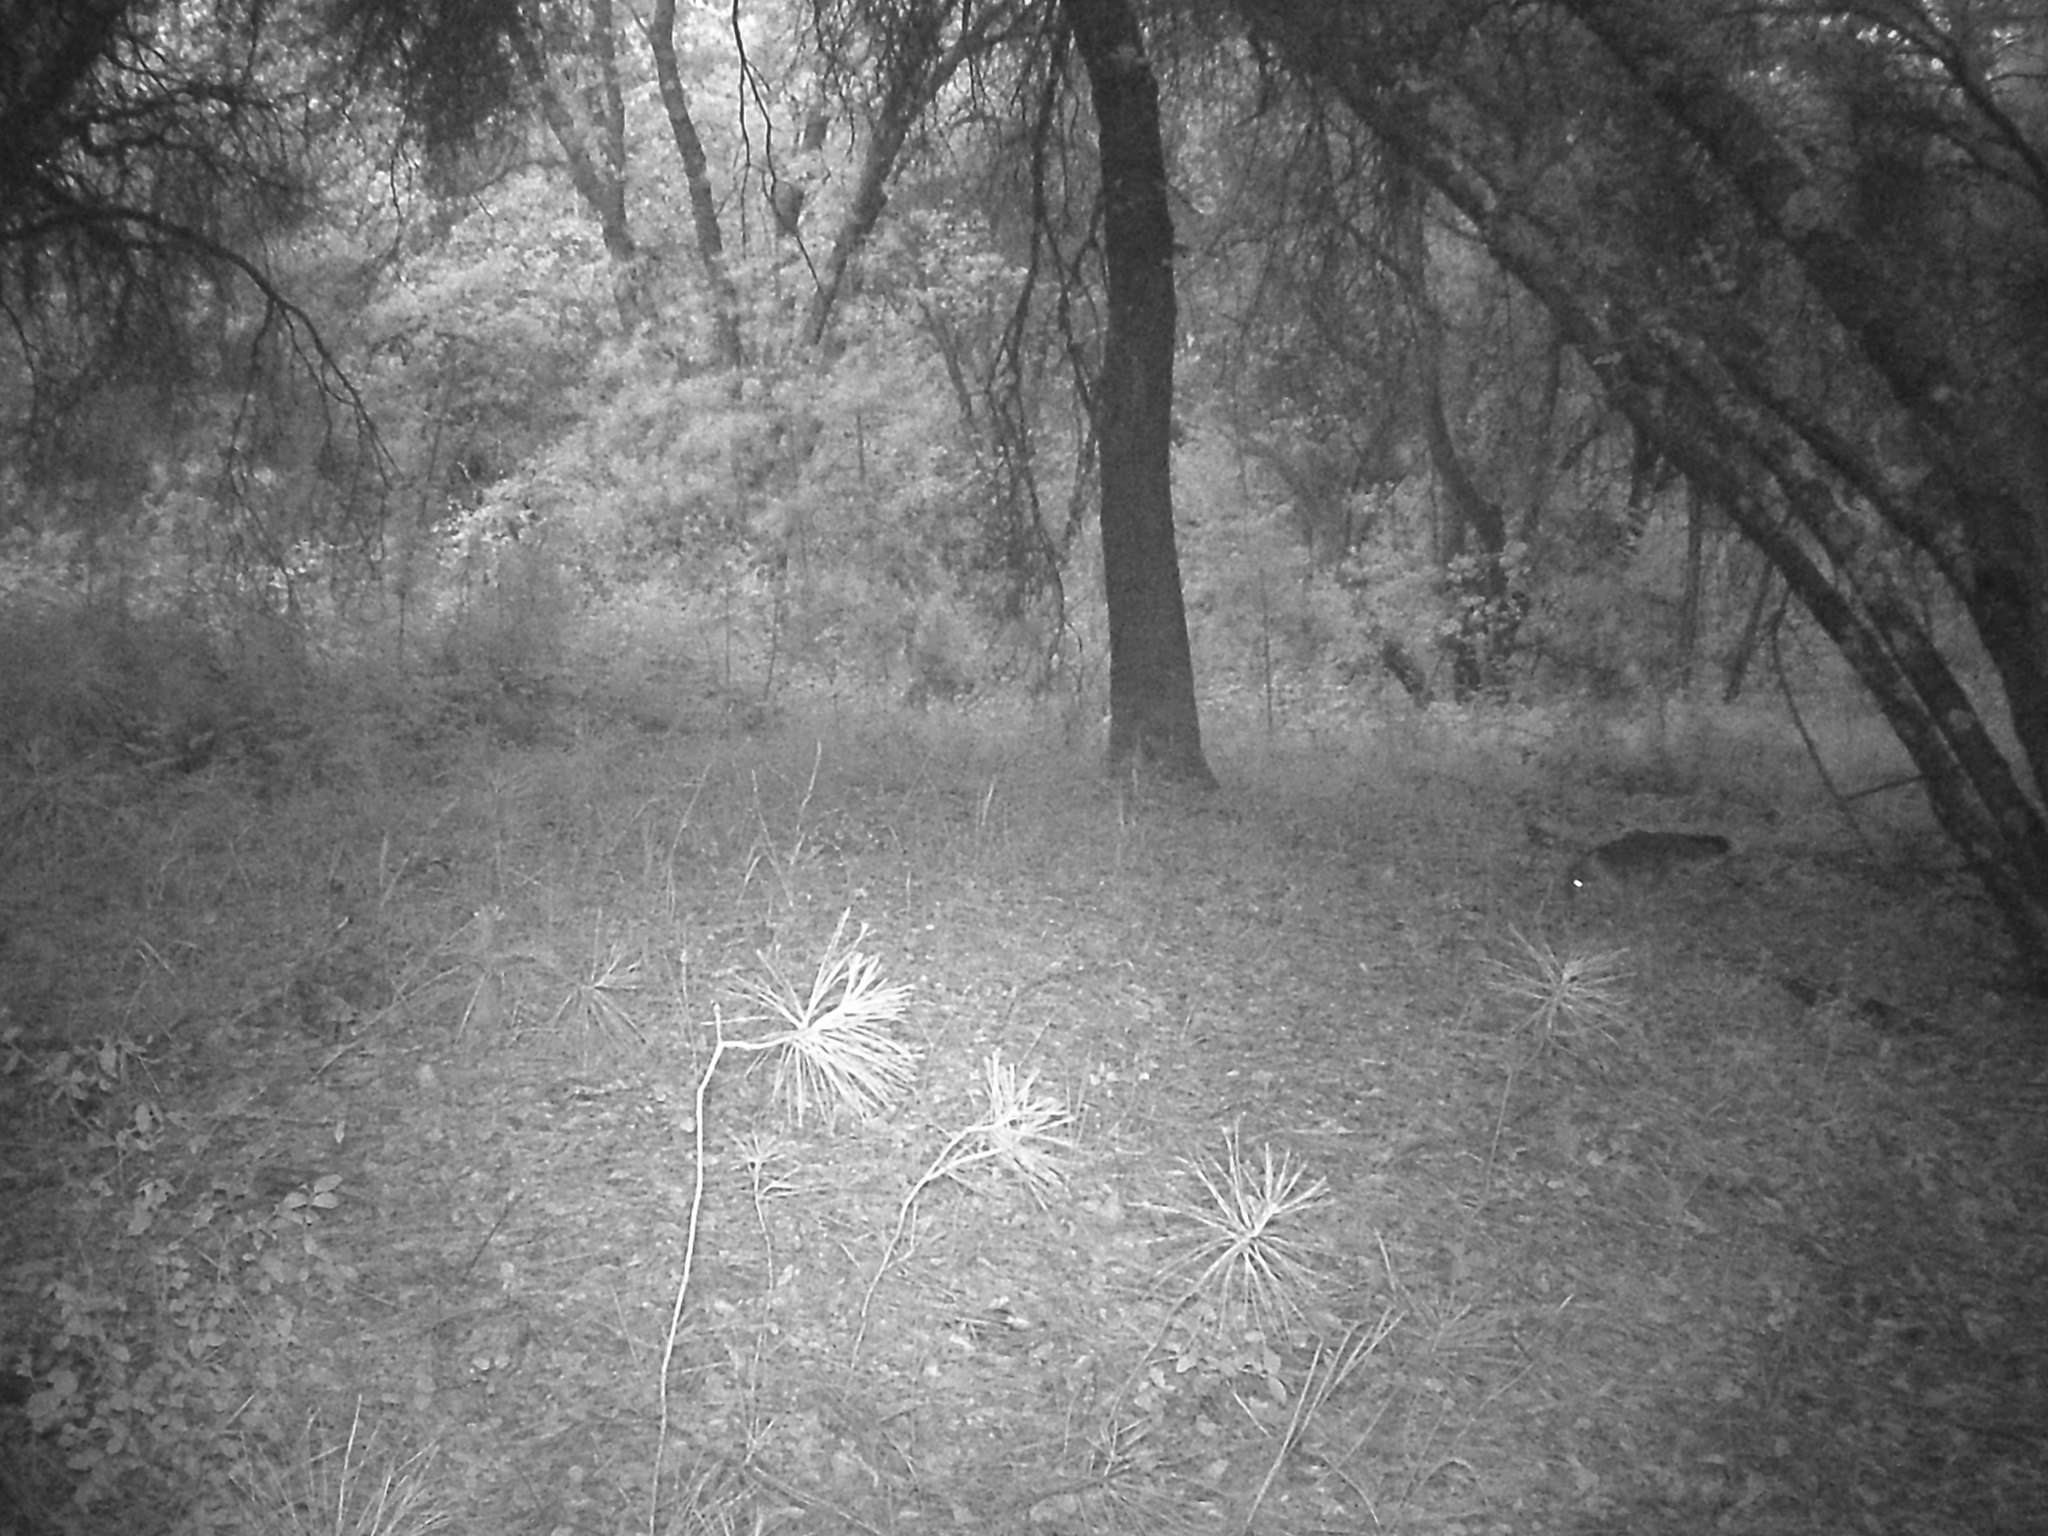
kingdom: Animalia
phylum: Chordata
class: Mammalia
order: Carnivora
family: Canidae
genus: Urocyon
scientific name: Urocyon cinereoargenteus
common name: Gray fox
